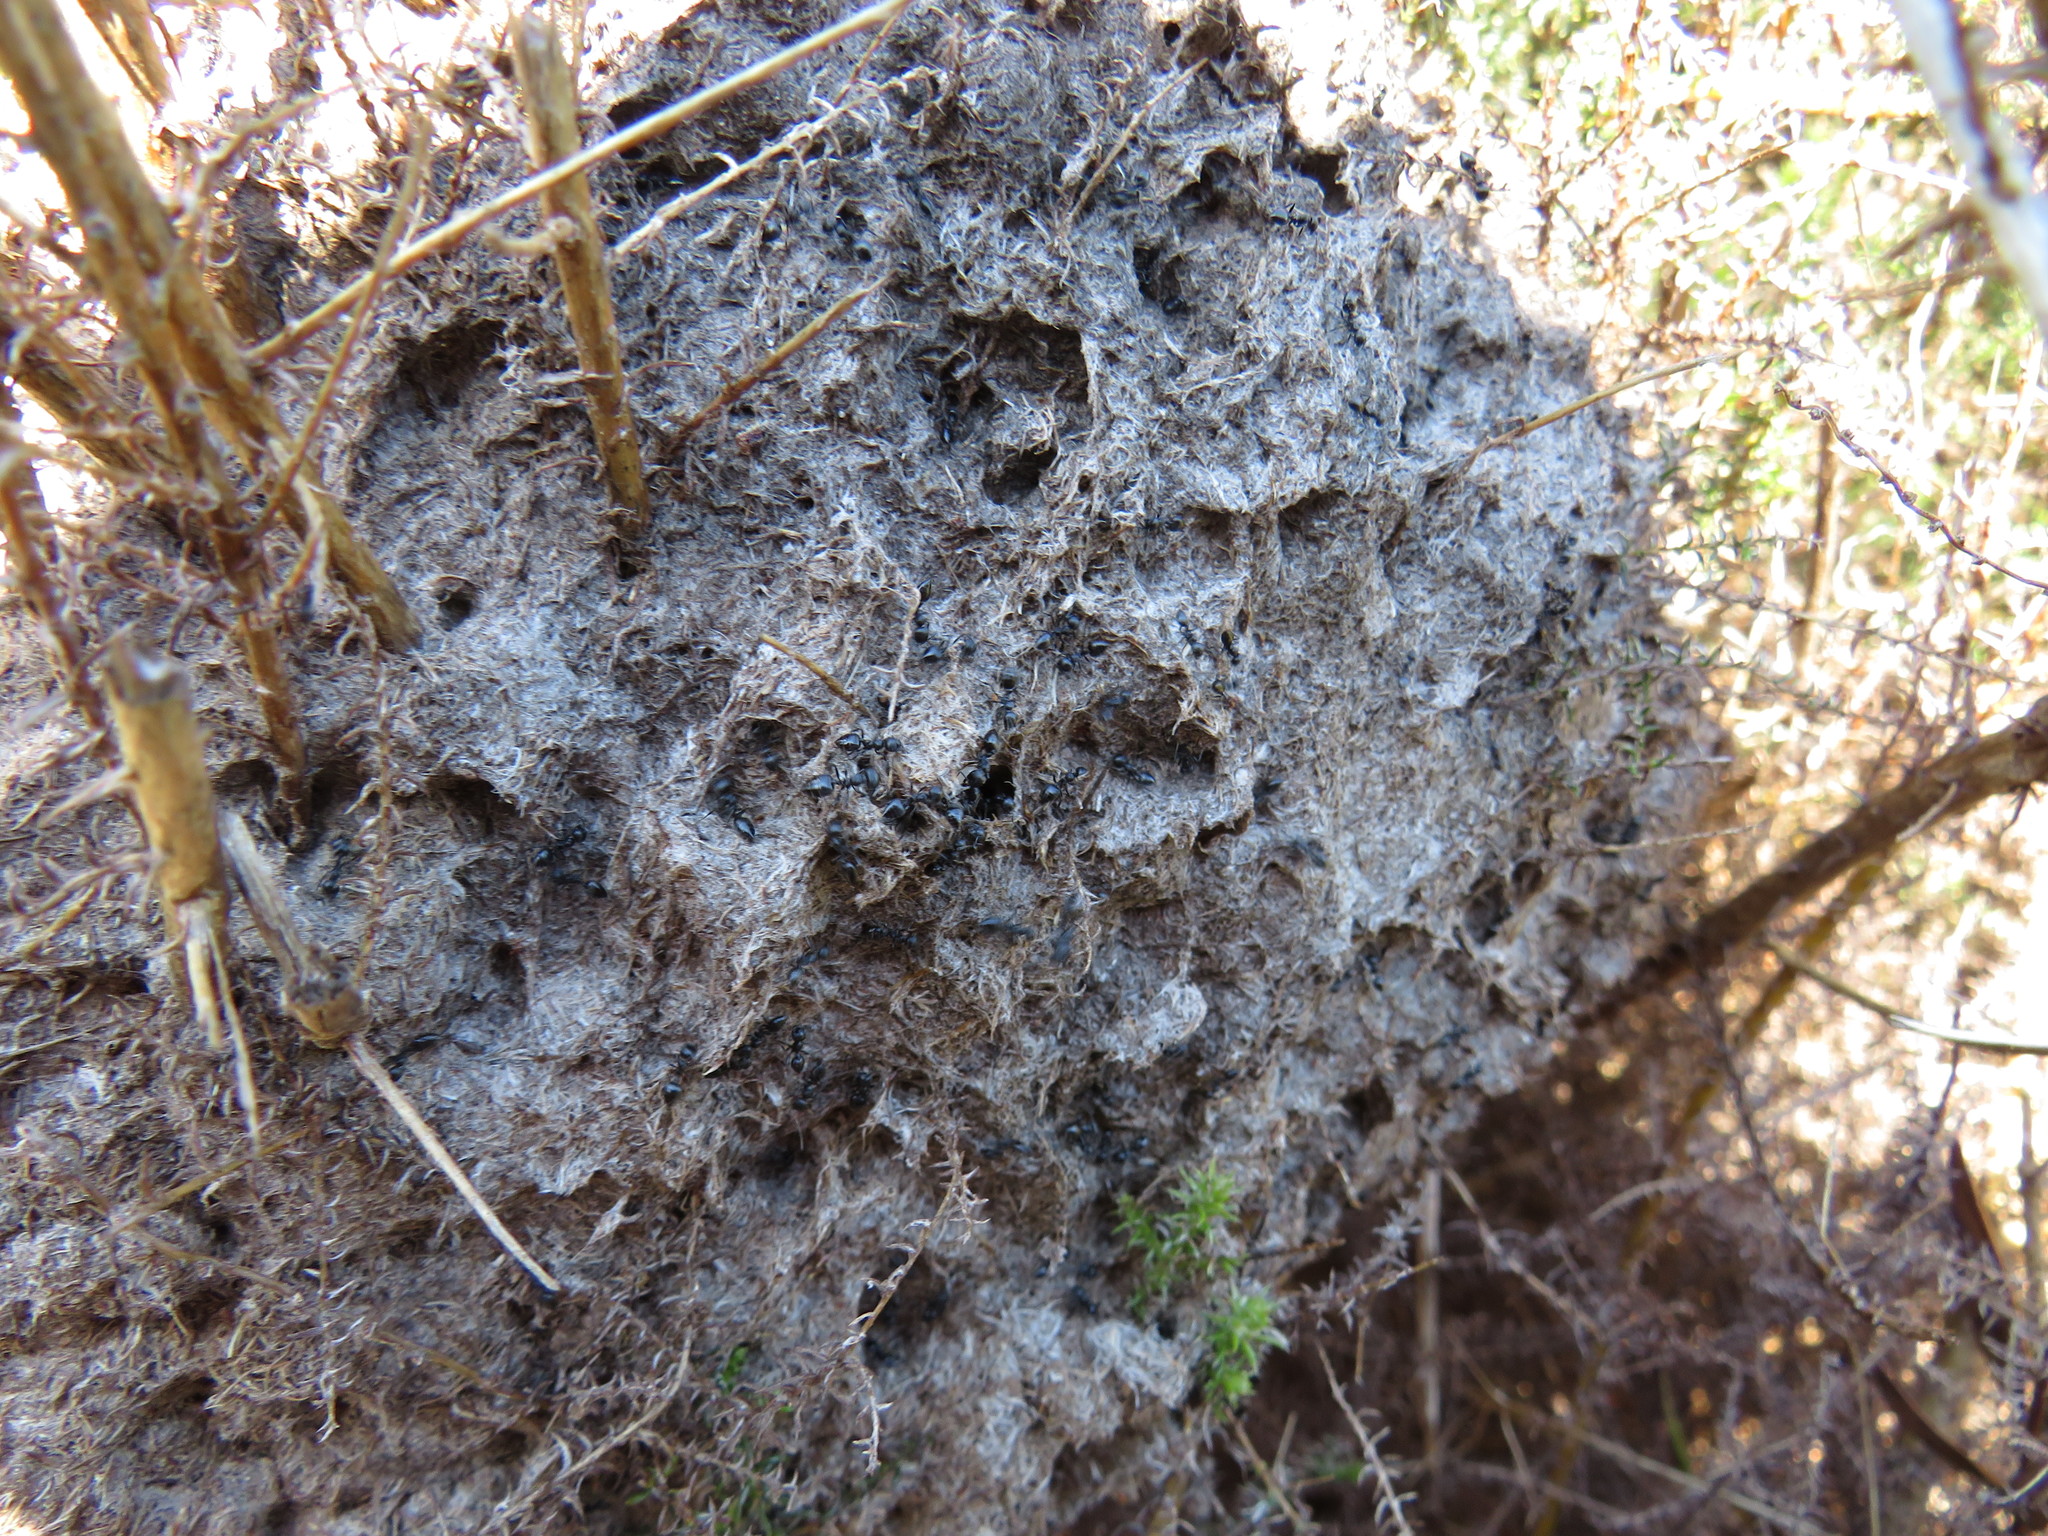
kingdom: Animalia
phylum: Arthropoda
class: Insecta
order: Hymenoptera
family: Formicidae
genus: Crematogaster
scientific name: Crematogaster peringueyi
